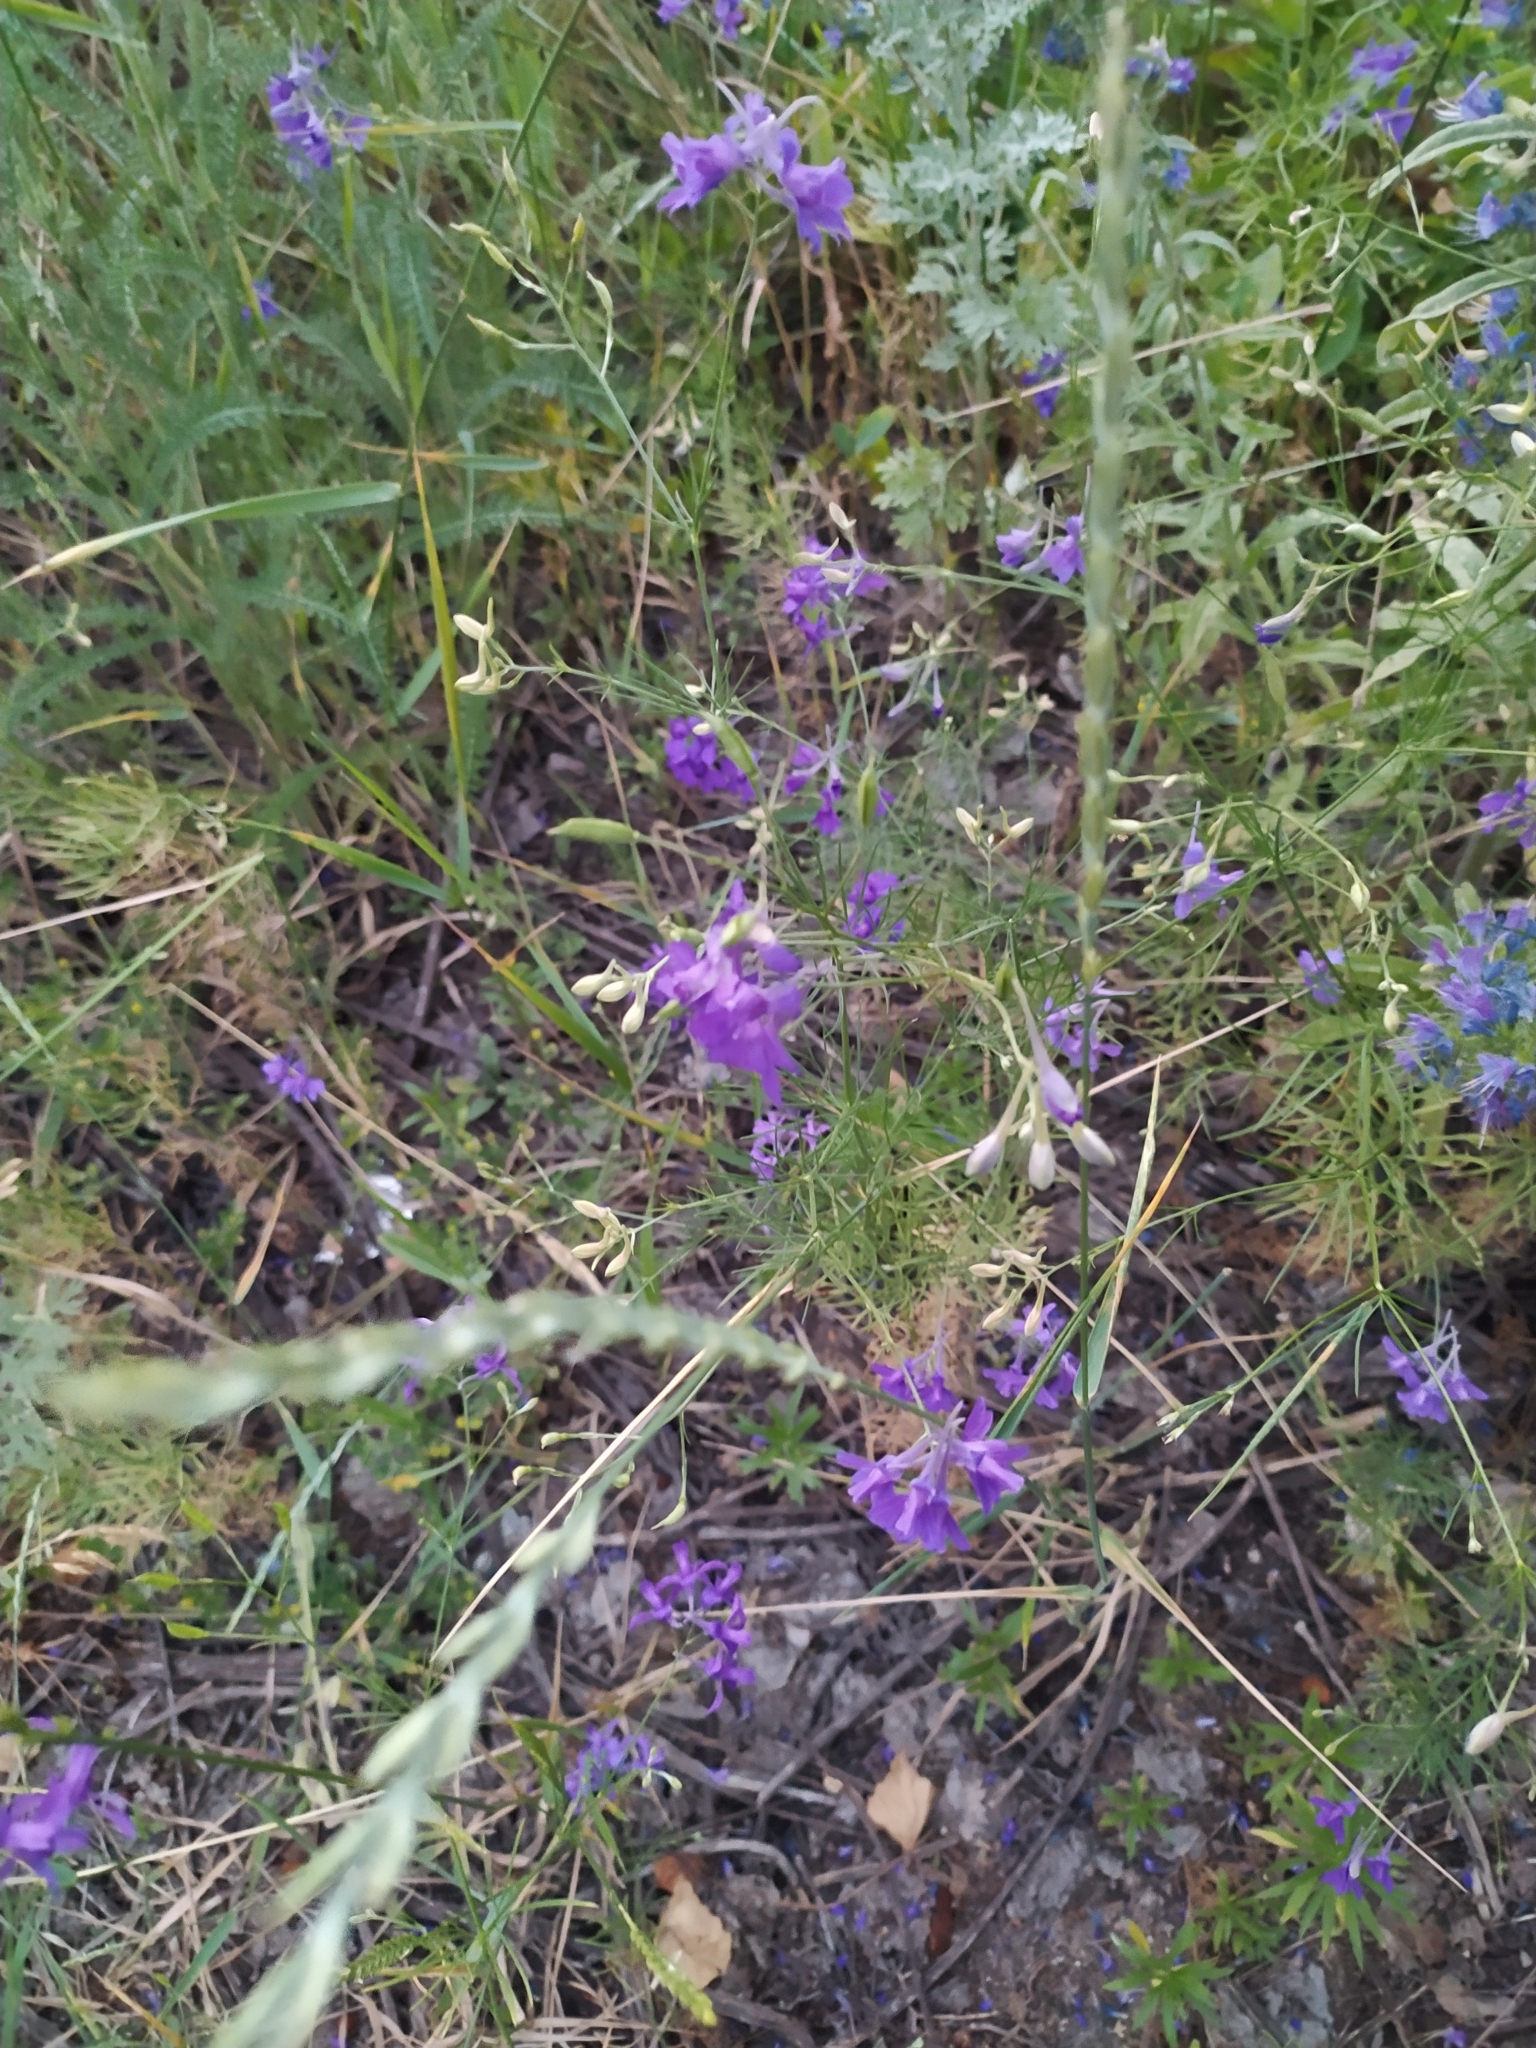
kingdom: Plantae
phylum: Tracheophyta
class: Magnoliopsida
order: Ranunculales
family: Ranunculaceae
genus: Delphinium
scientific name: Delphinium consolida
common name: Branching larkspur
